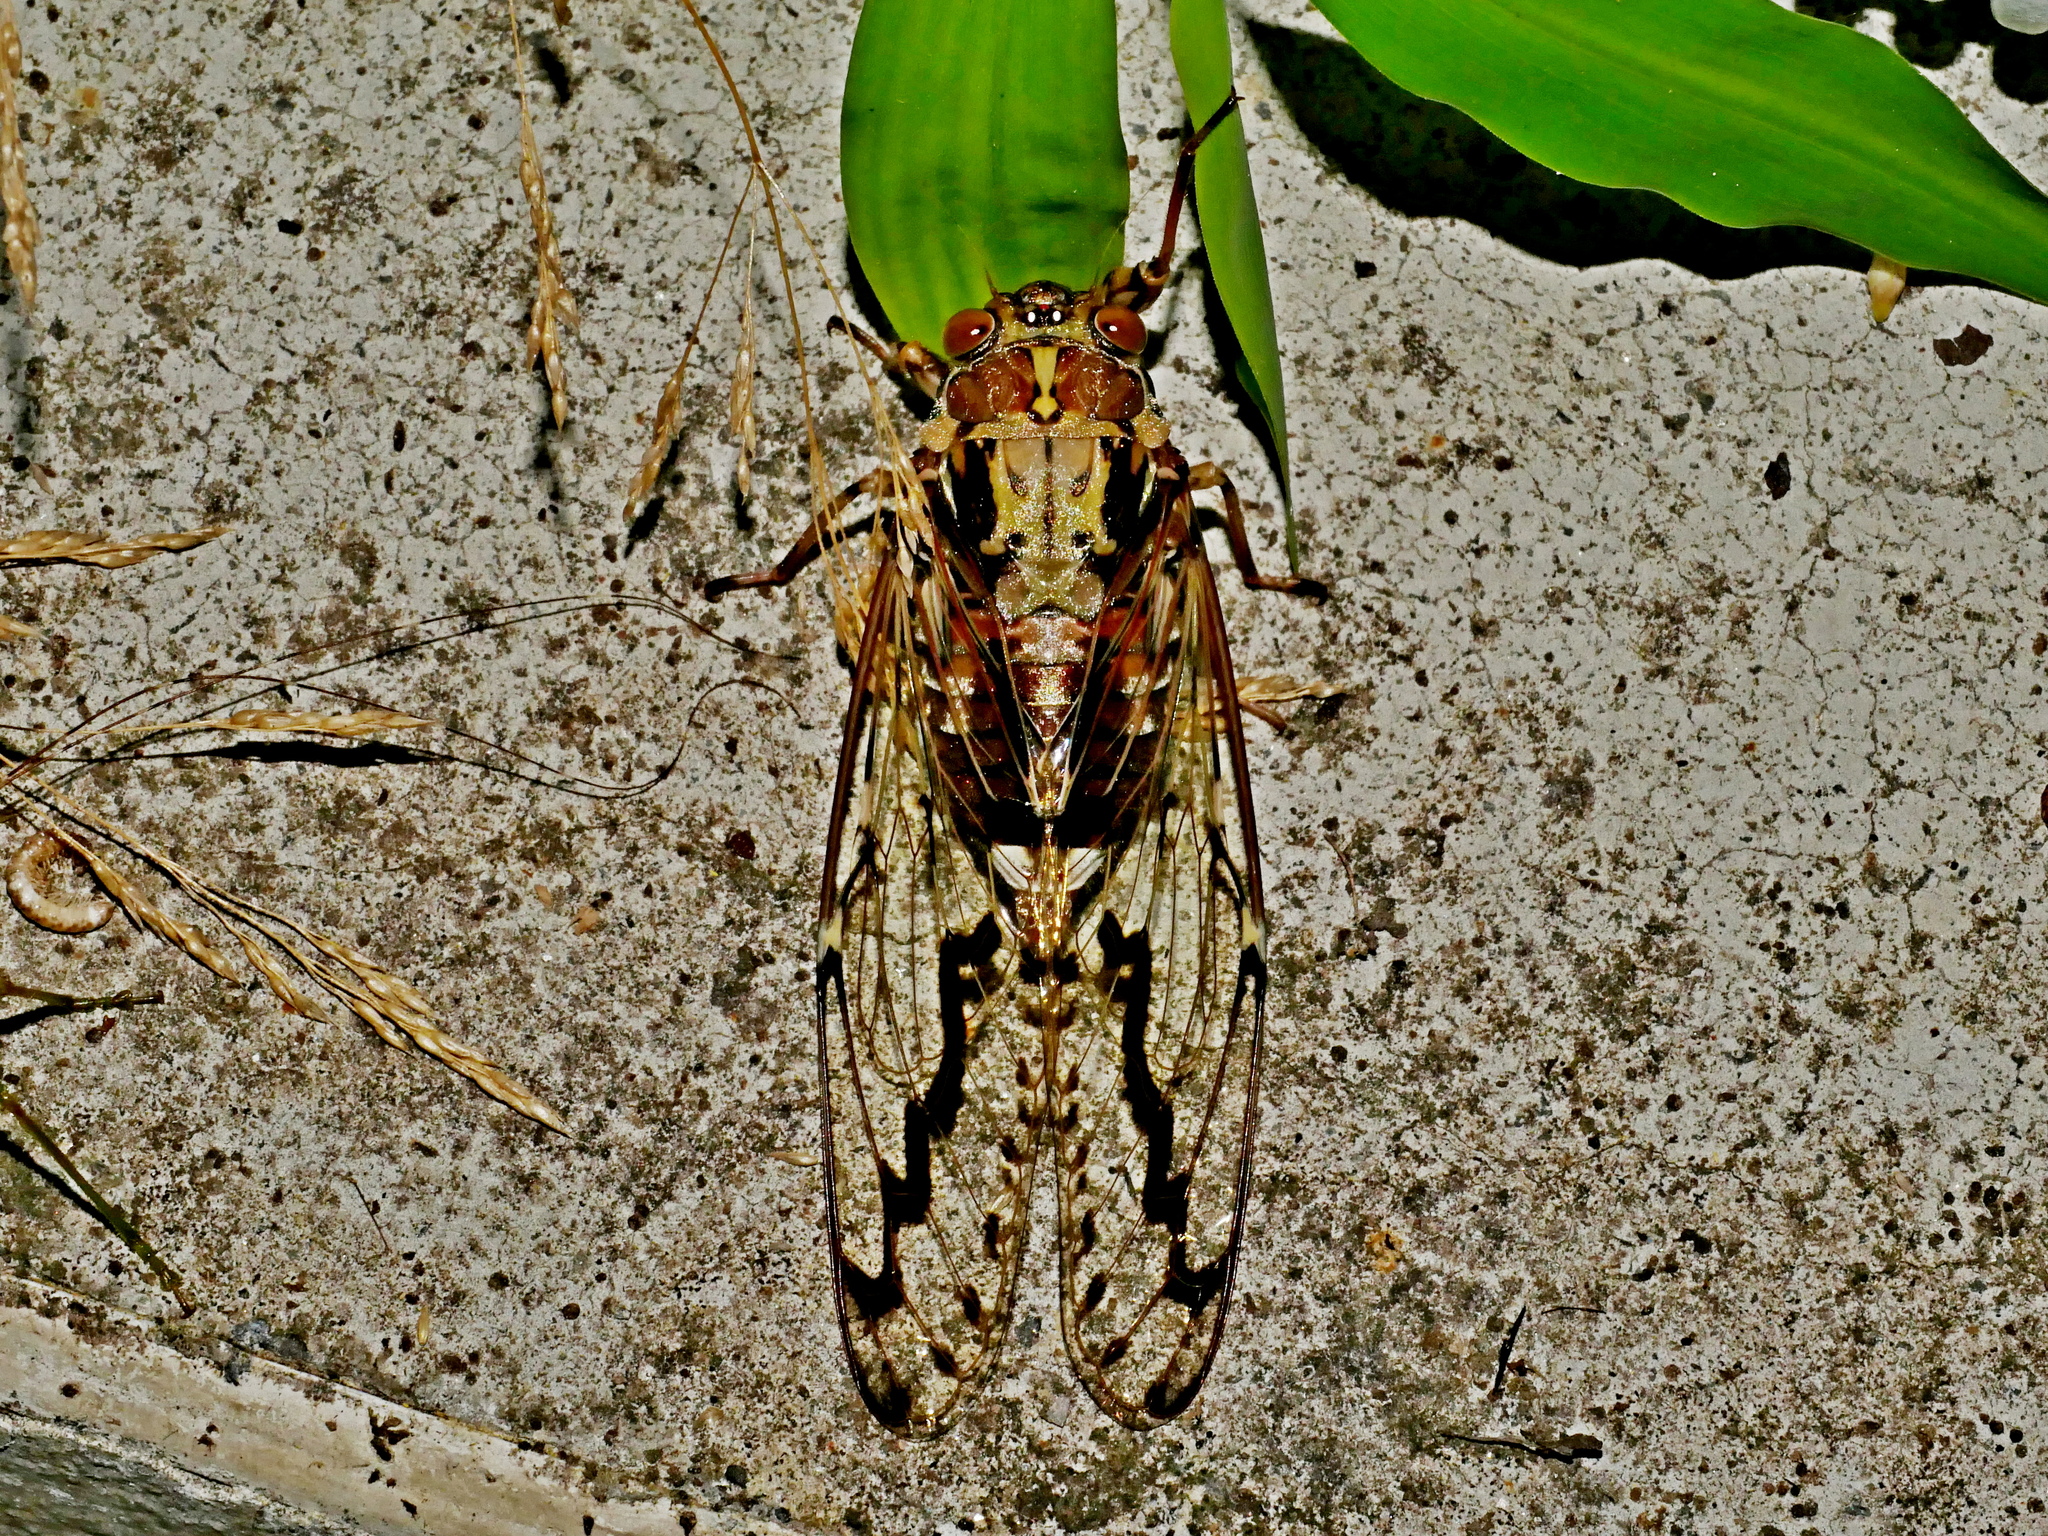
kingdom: Animalia
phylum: Arthropoda
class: Insecta
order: Hemiptera
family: Cicadidae
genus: Tanna
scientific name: Tanna ornatipennis
